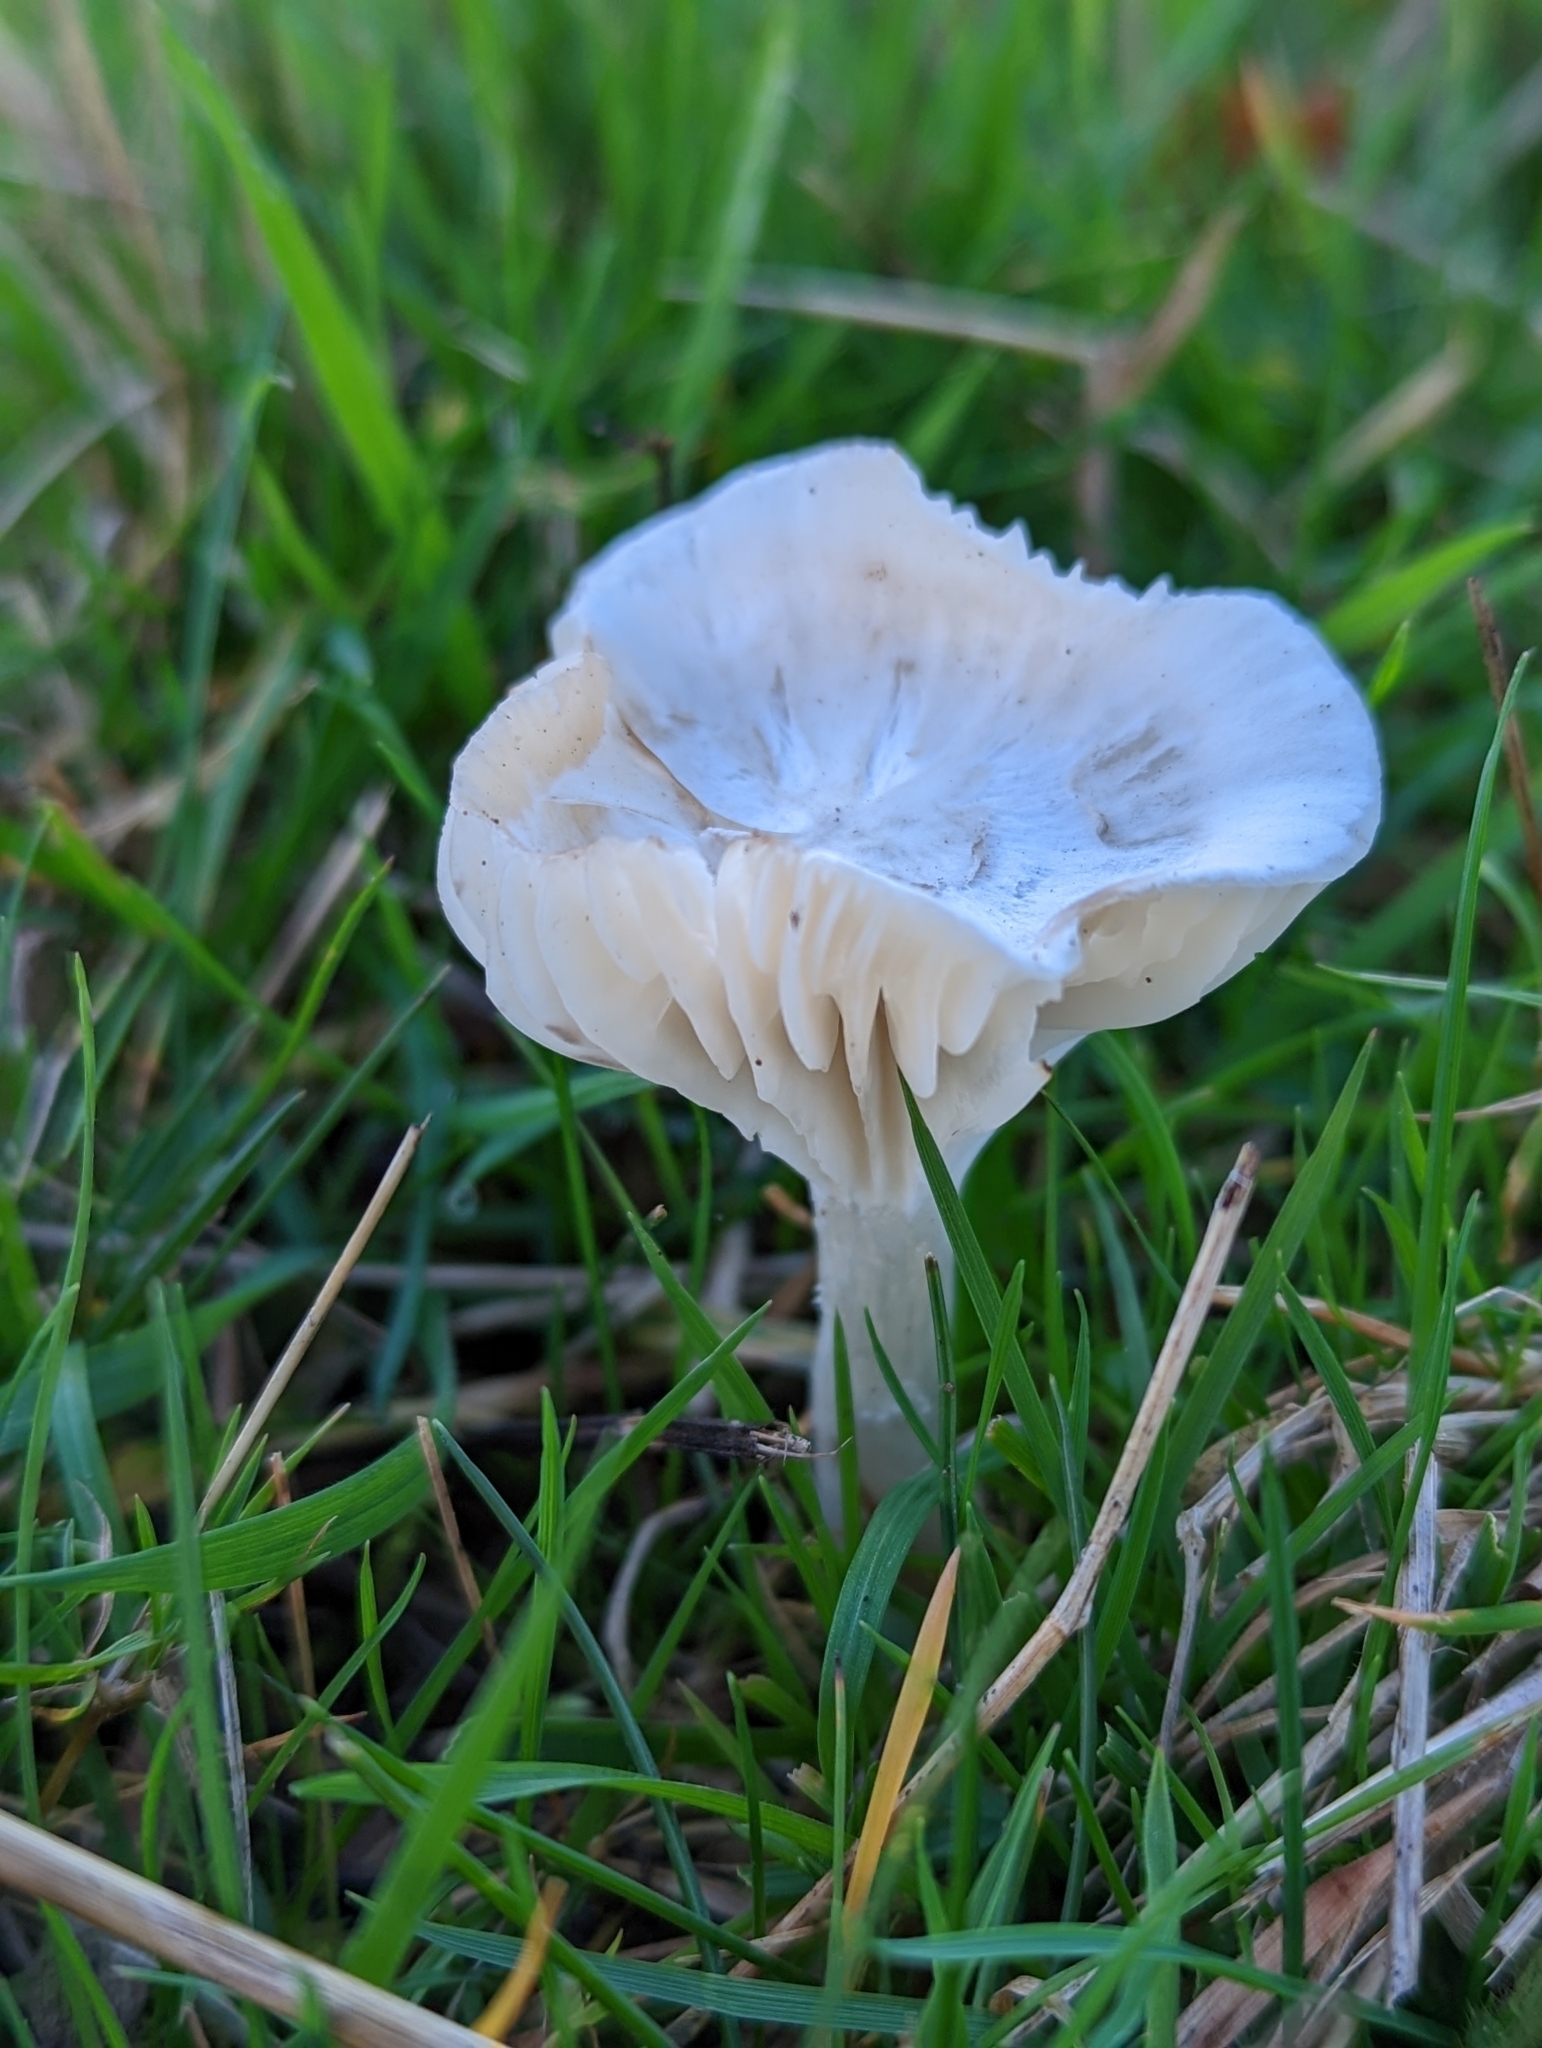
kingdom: Fungi
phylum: Basidiomycota
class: Agaricomycetes
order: Agaricales
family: Hygrophoraceae
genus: Cuphophyllus
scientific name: Cuphophyllus virgineus
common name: Snowy waxcap
